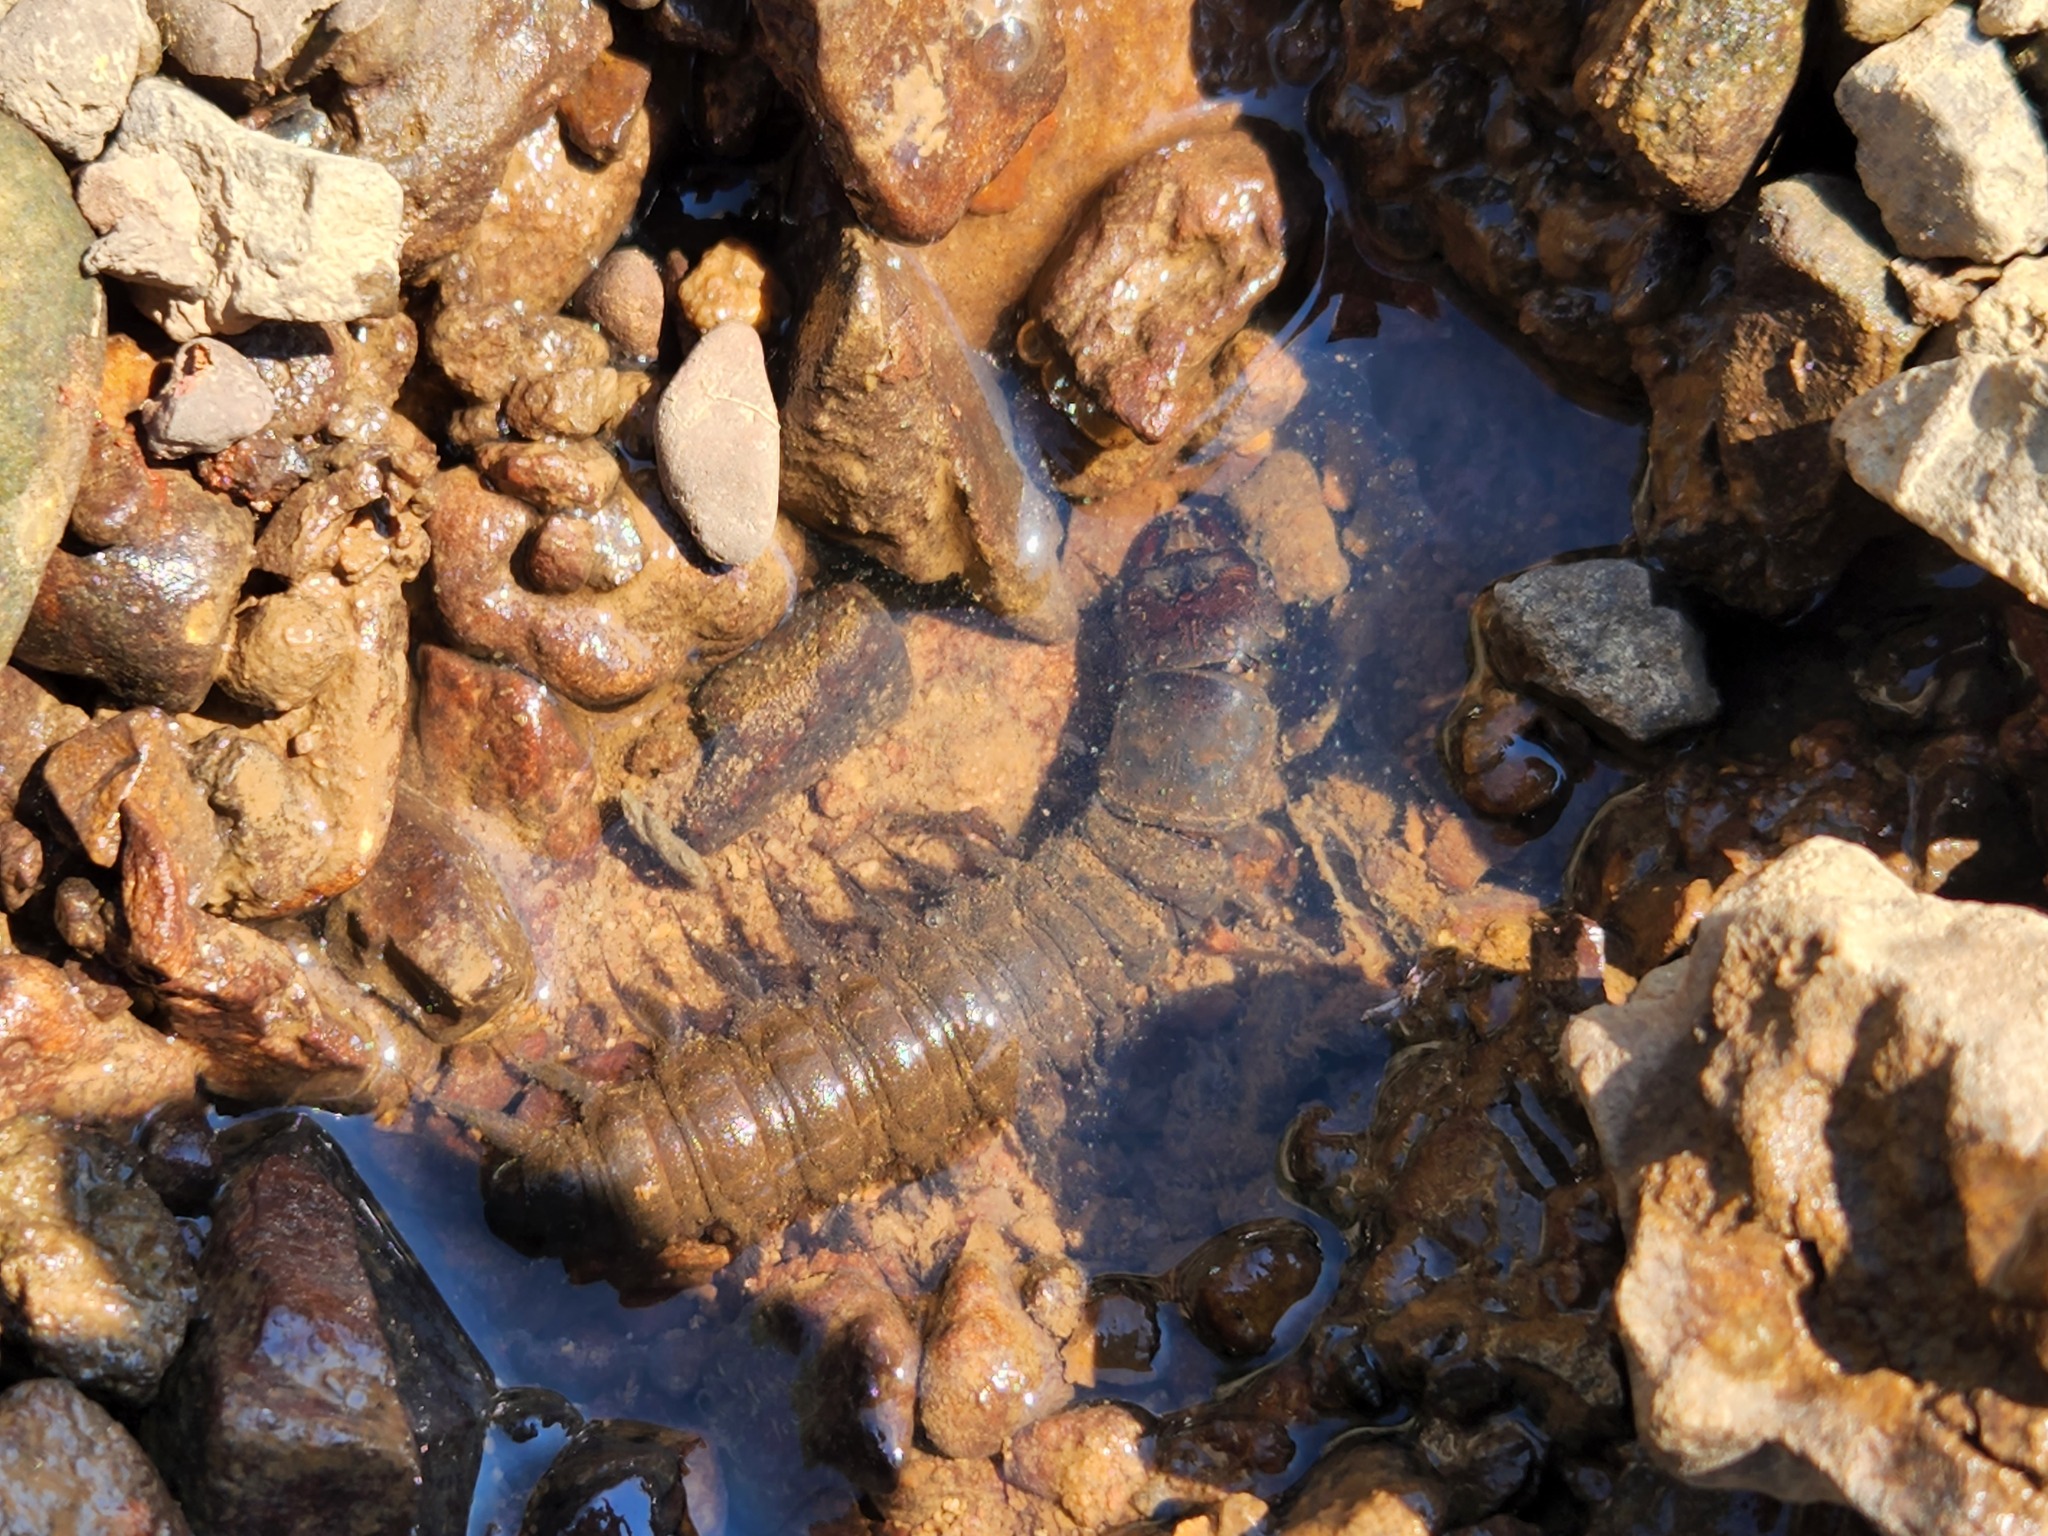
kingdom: Animalia
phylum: Arthropoda
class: Insecta
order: Megaloptera
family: Corydalidae
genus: Corydalus
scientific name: Corydalus cornutus
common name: Dobsonfly
